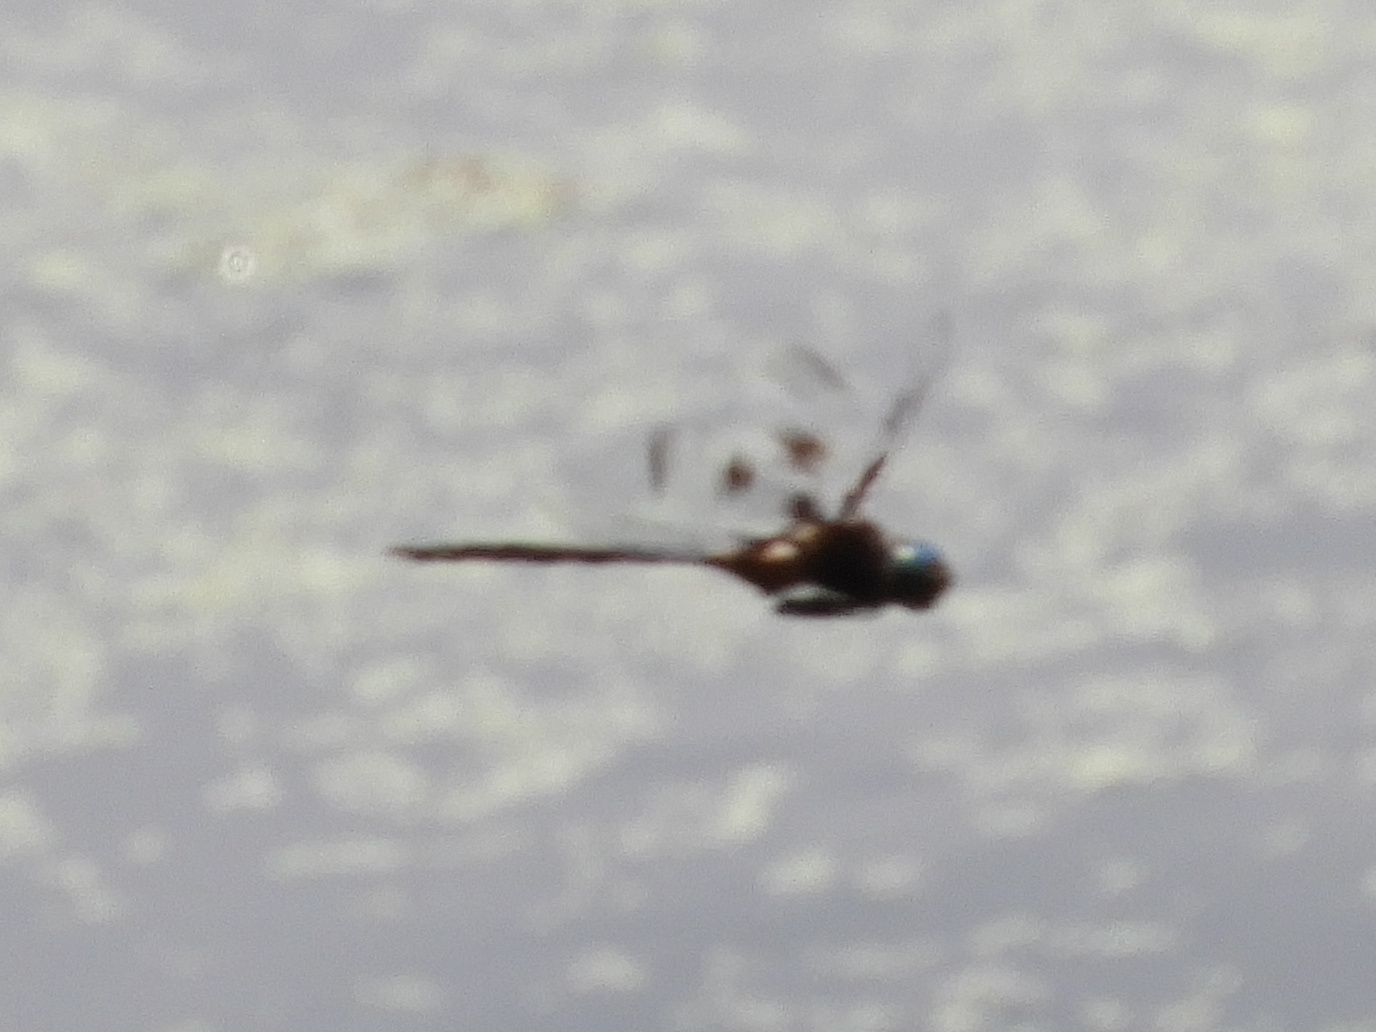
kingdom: Animalia
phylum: Arthropoda
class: Insecta
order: Odonata
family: Corduliidae
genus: Epitheca
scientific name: Epitheca princeps
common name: Prince baskettail
